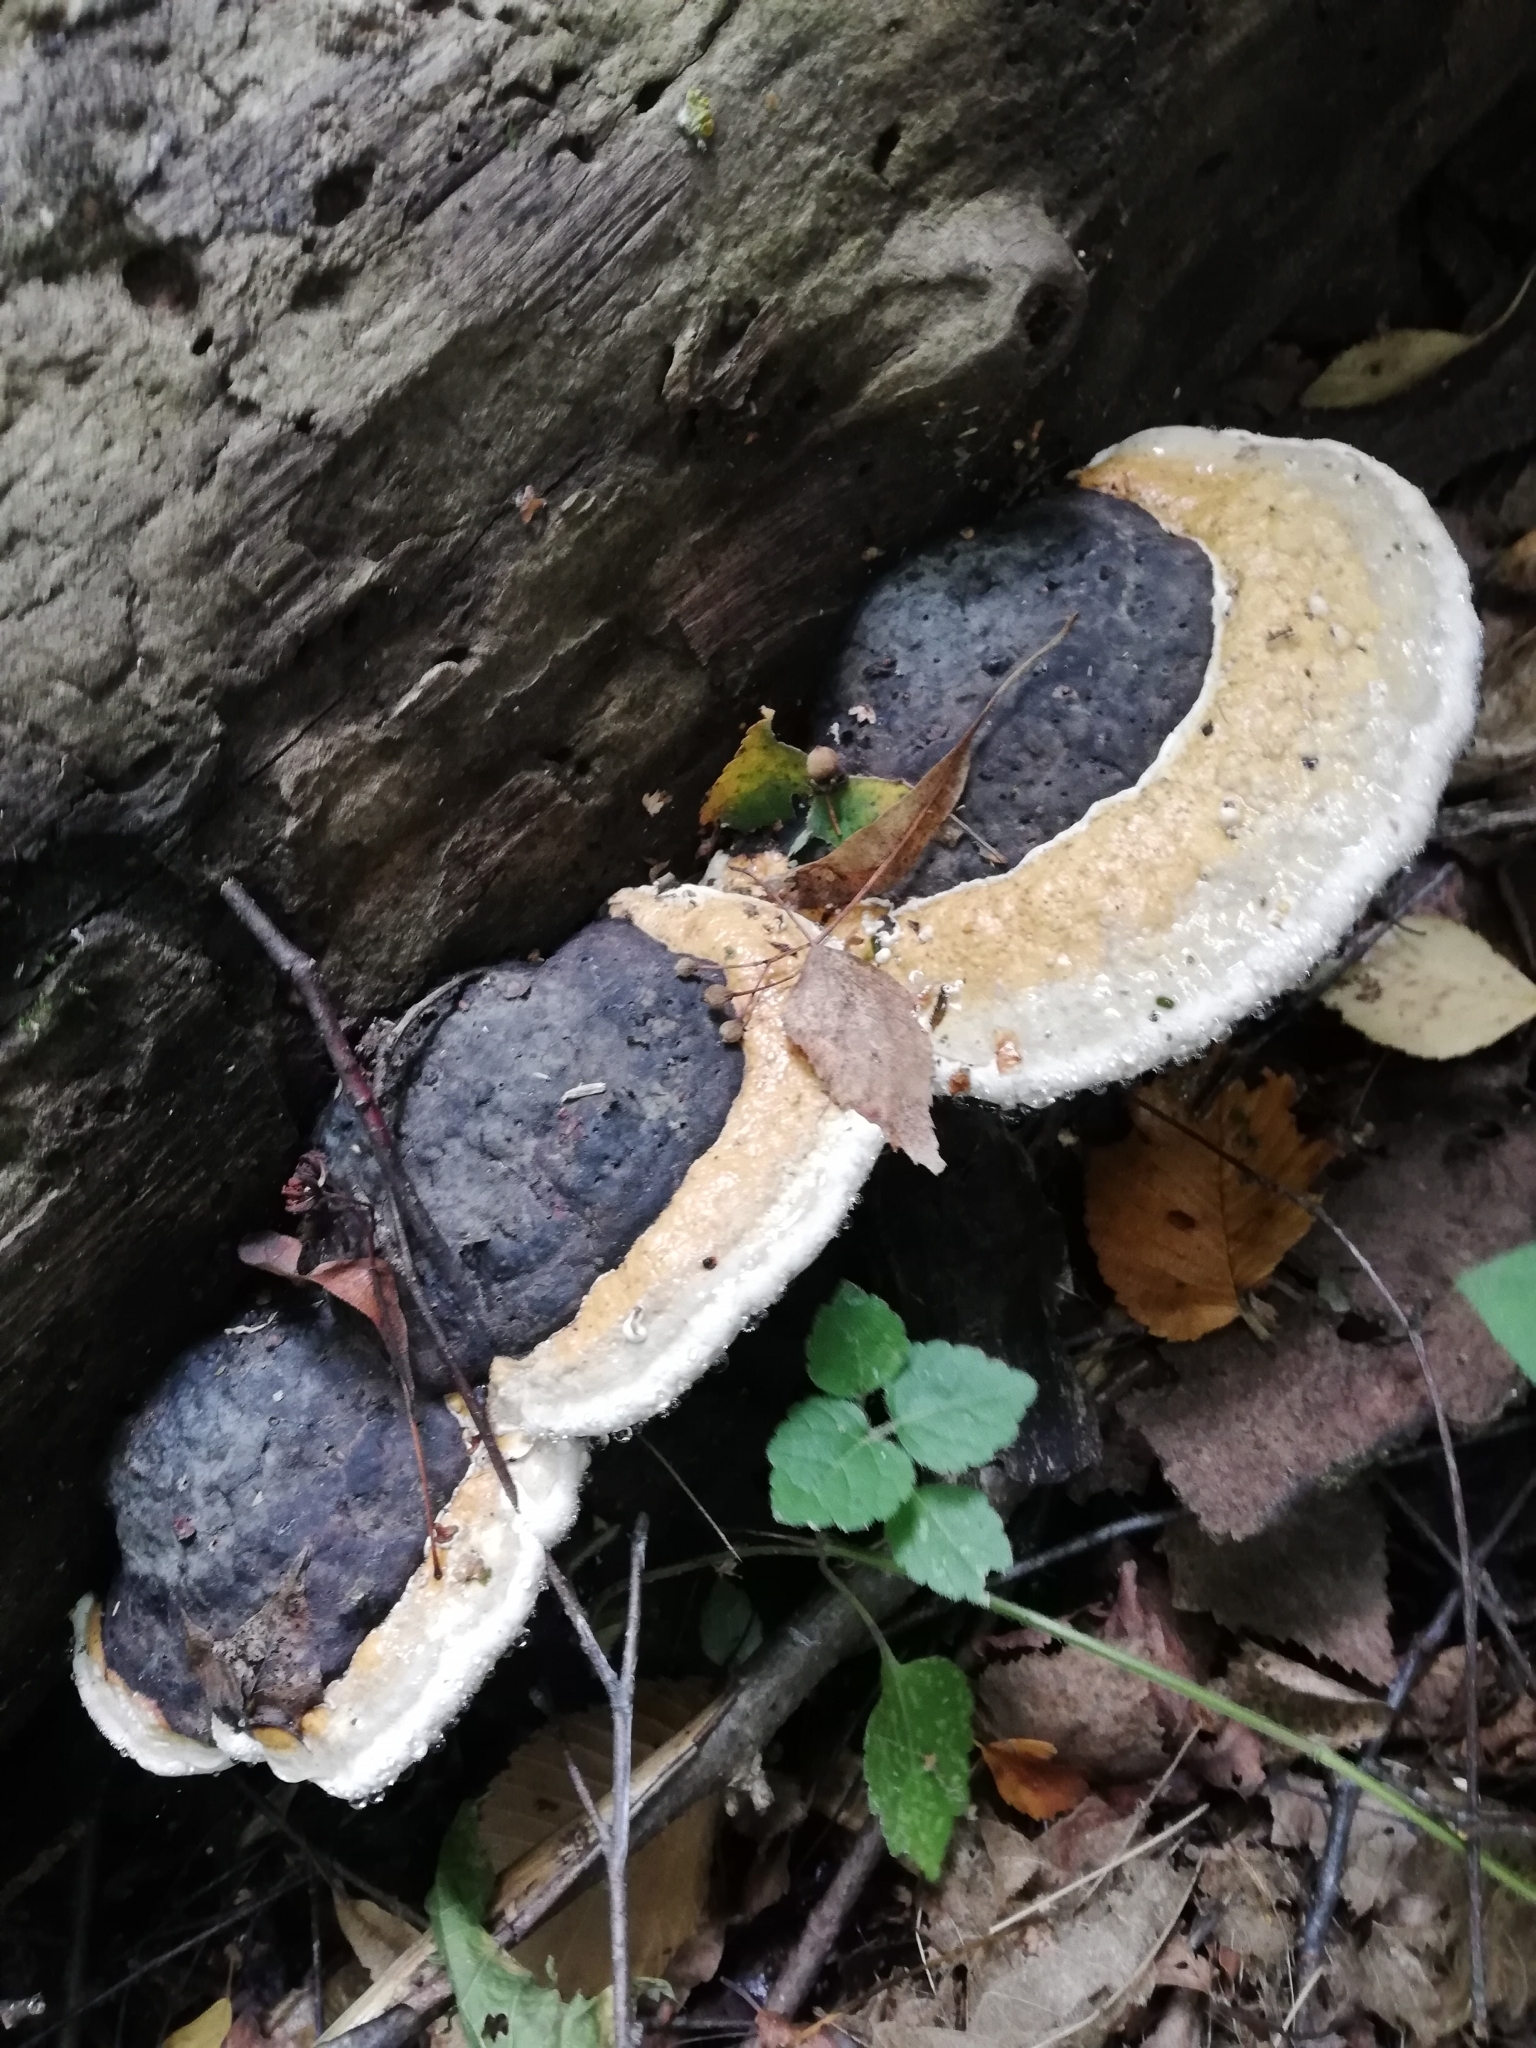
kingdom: Fungi
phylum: Basidiomycota
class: Agaricomycetes
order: Polyporales
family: Fomitopsidaceae
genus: Fomitopsis
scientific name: Fomitopsis pinicola
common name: Red-belted bracket
